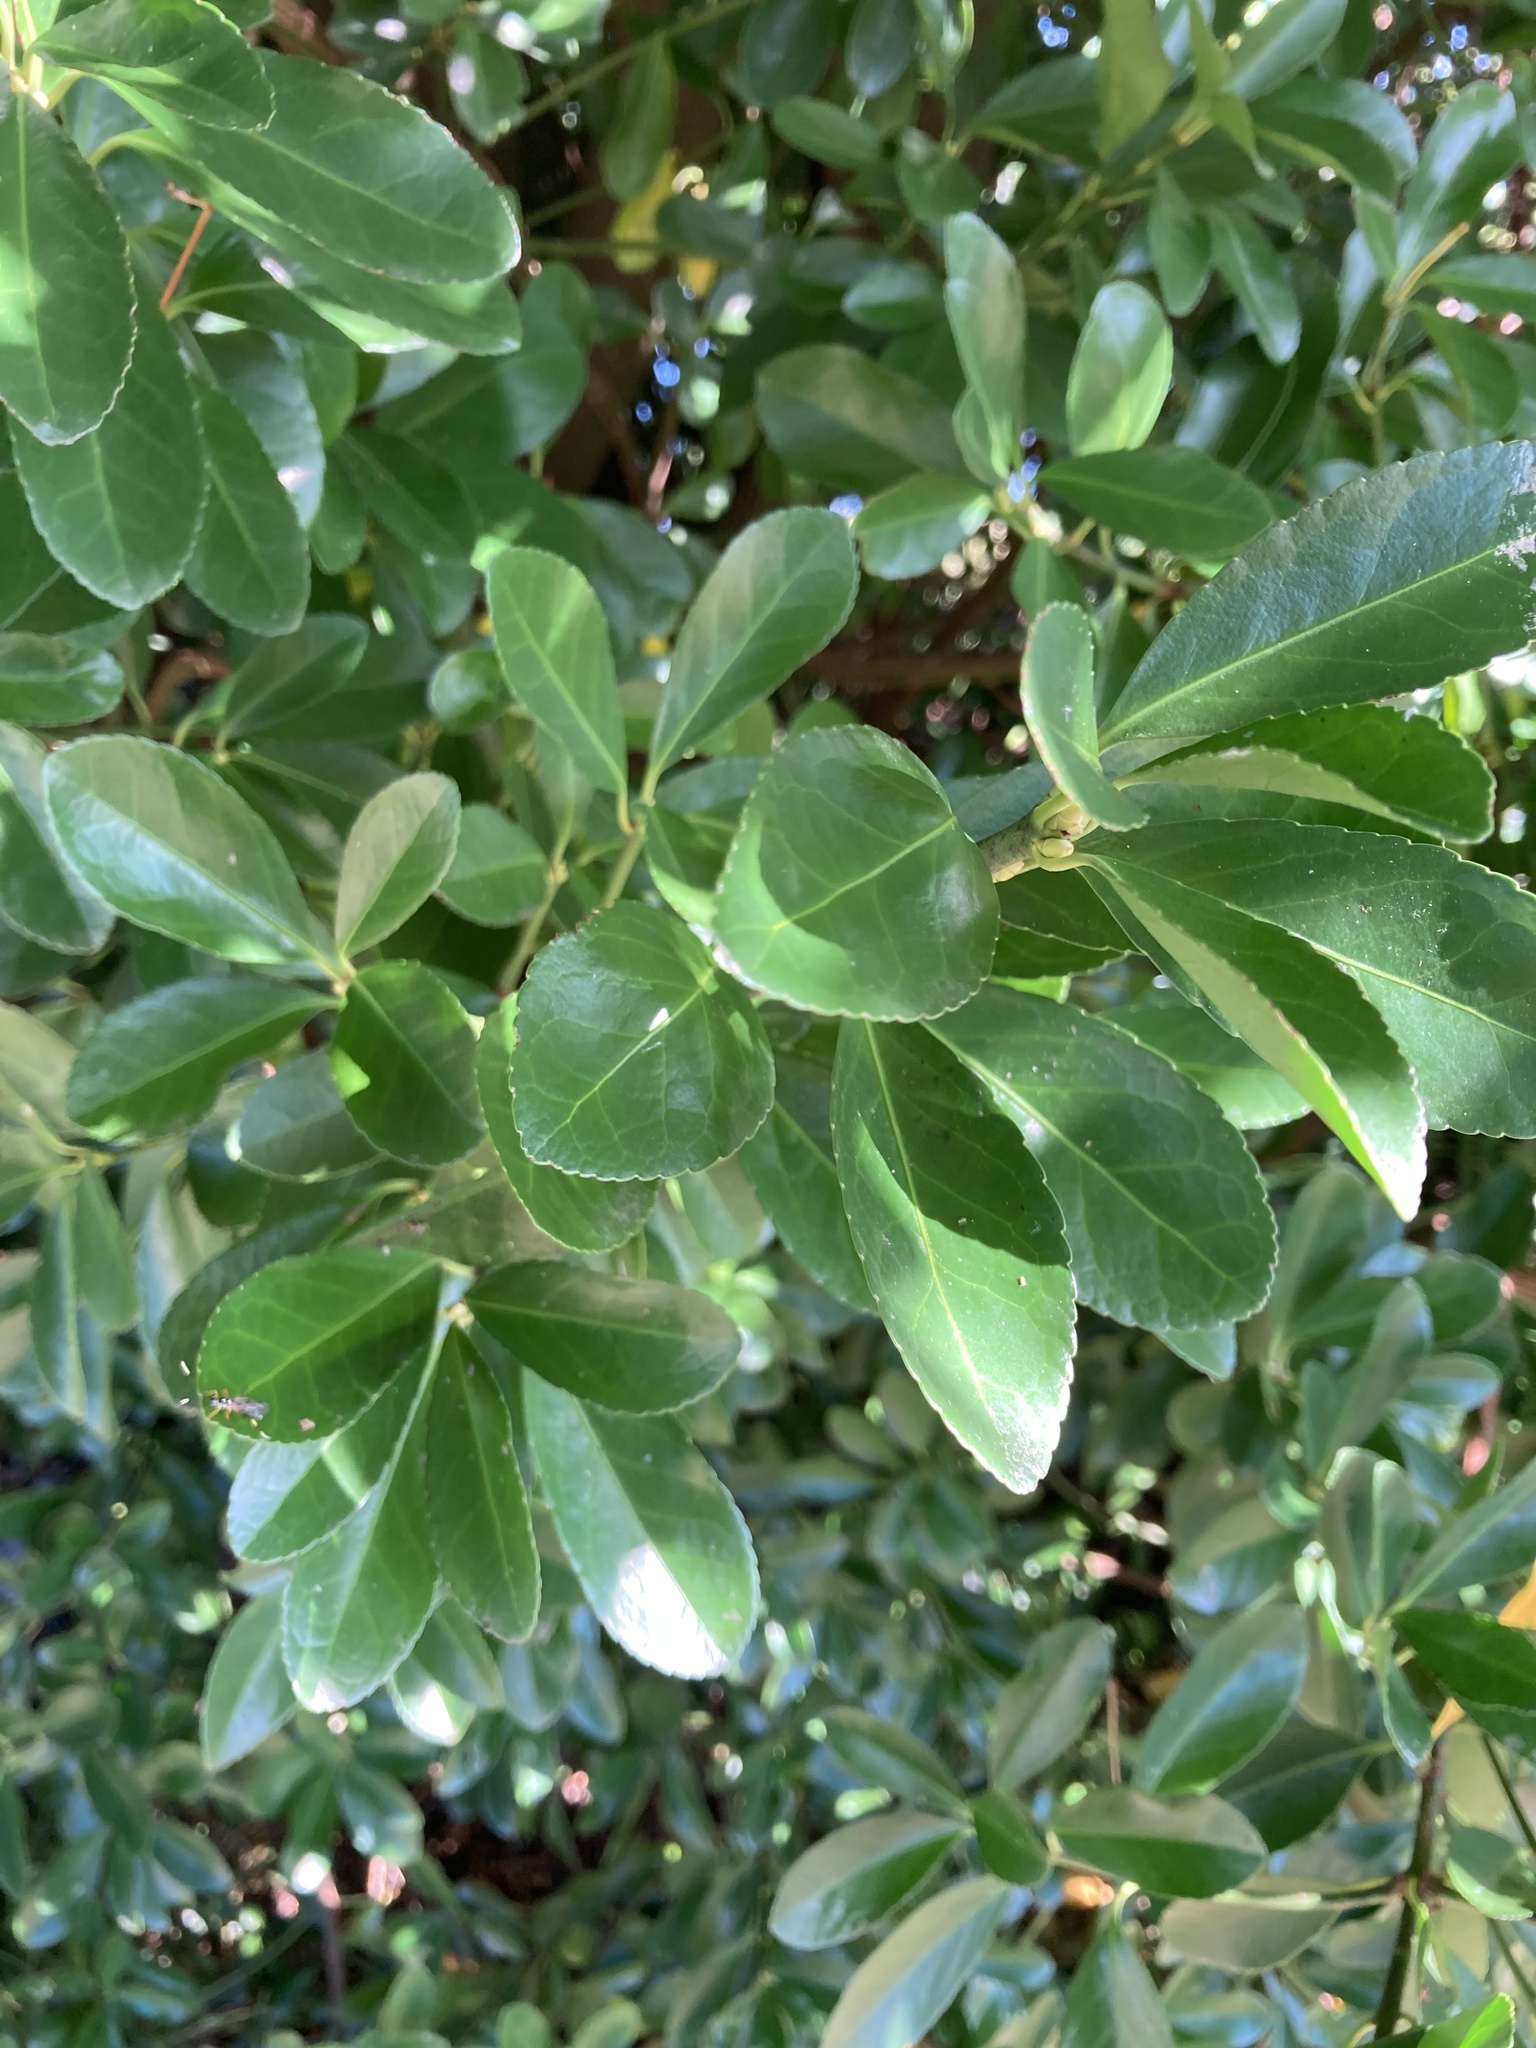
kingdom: Plantae
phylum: Tracheophyta
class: Magnoliopsida
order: Celastrales
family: Celastraceae
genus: Euonymus
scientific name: Euonymus japonicus
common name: Japanese spindletree
